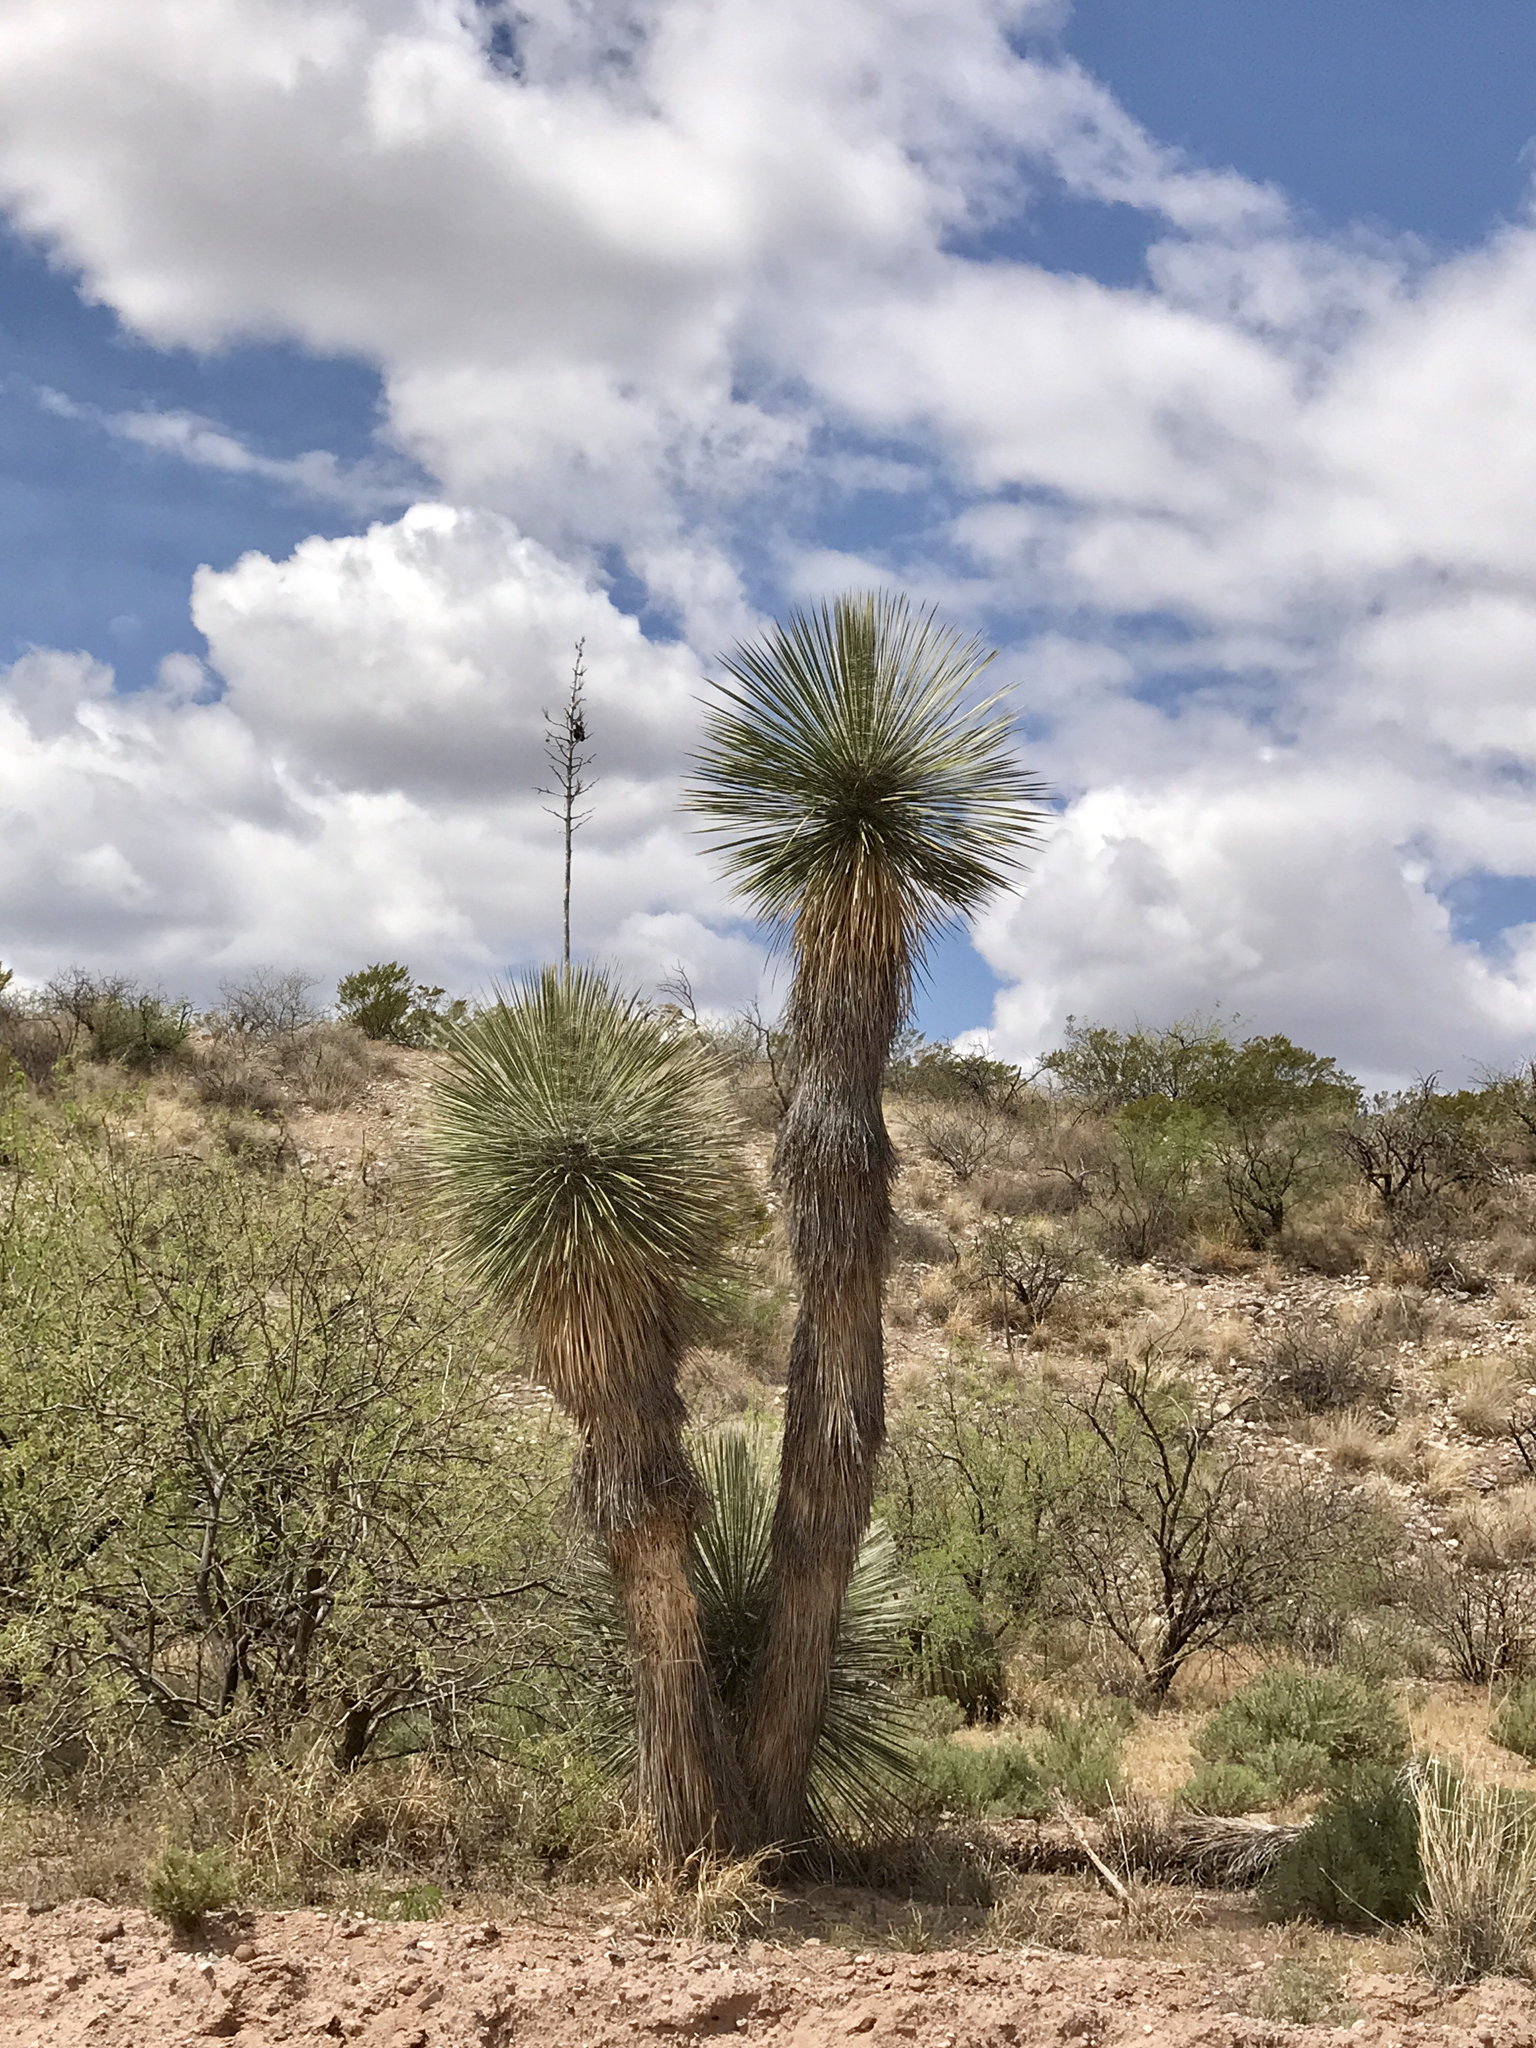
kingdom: Plantae
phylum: Tracheophyta
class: Liliopsida
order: Asparagales
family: Asparagaceae
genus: Yucca
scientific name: Yucca elata
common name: Palmella
